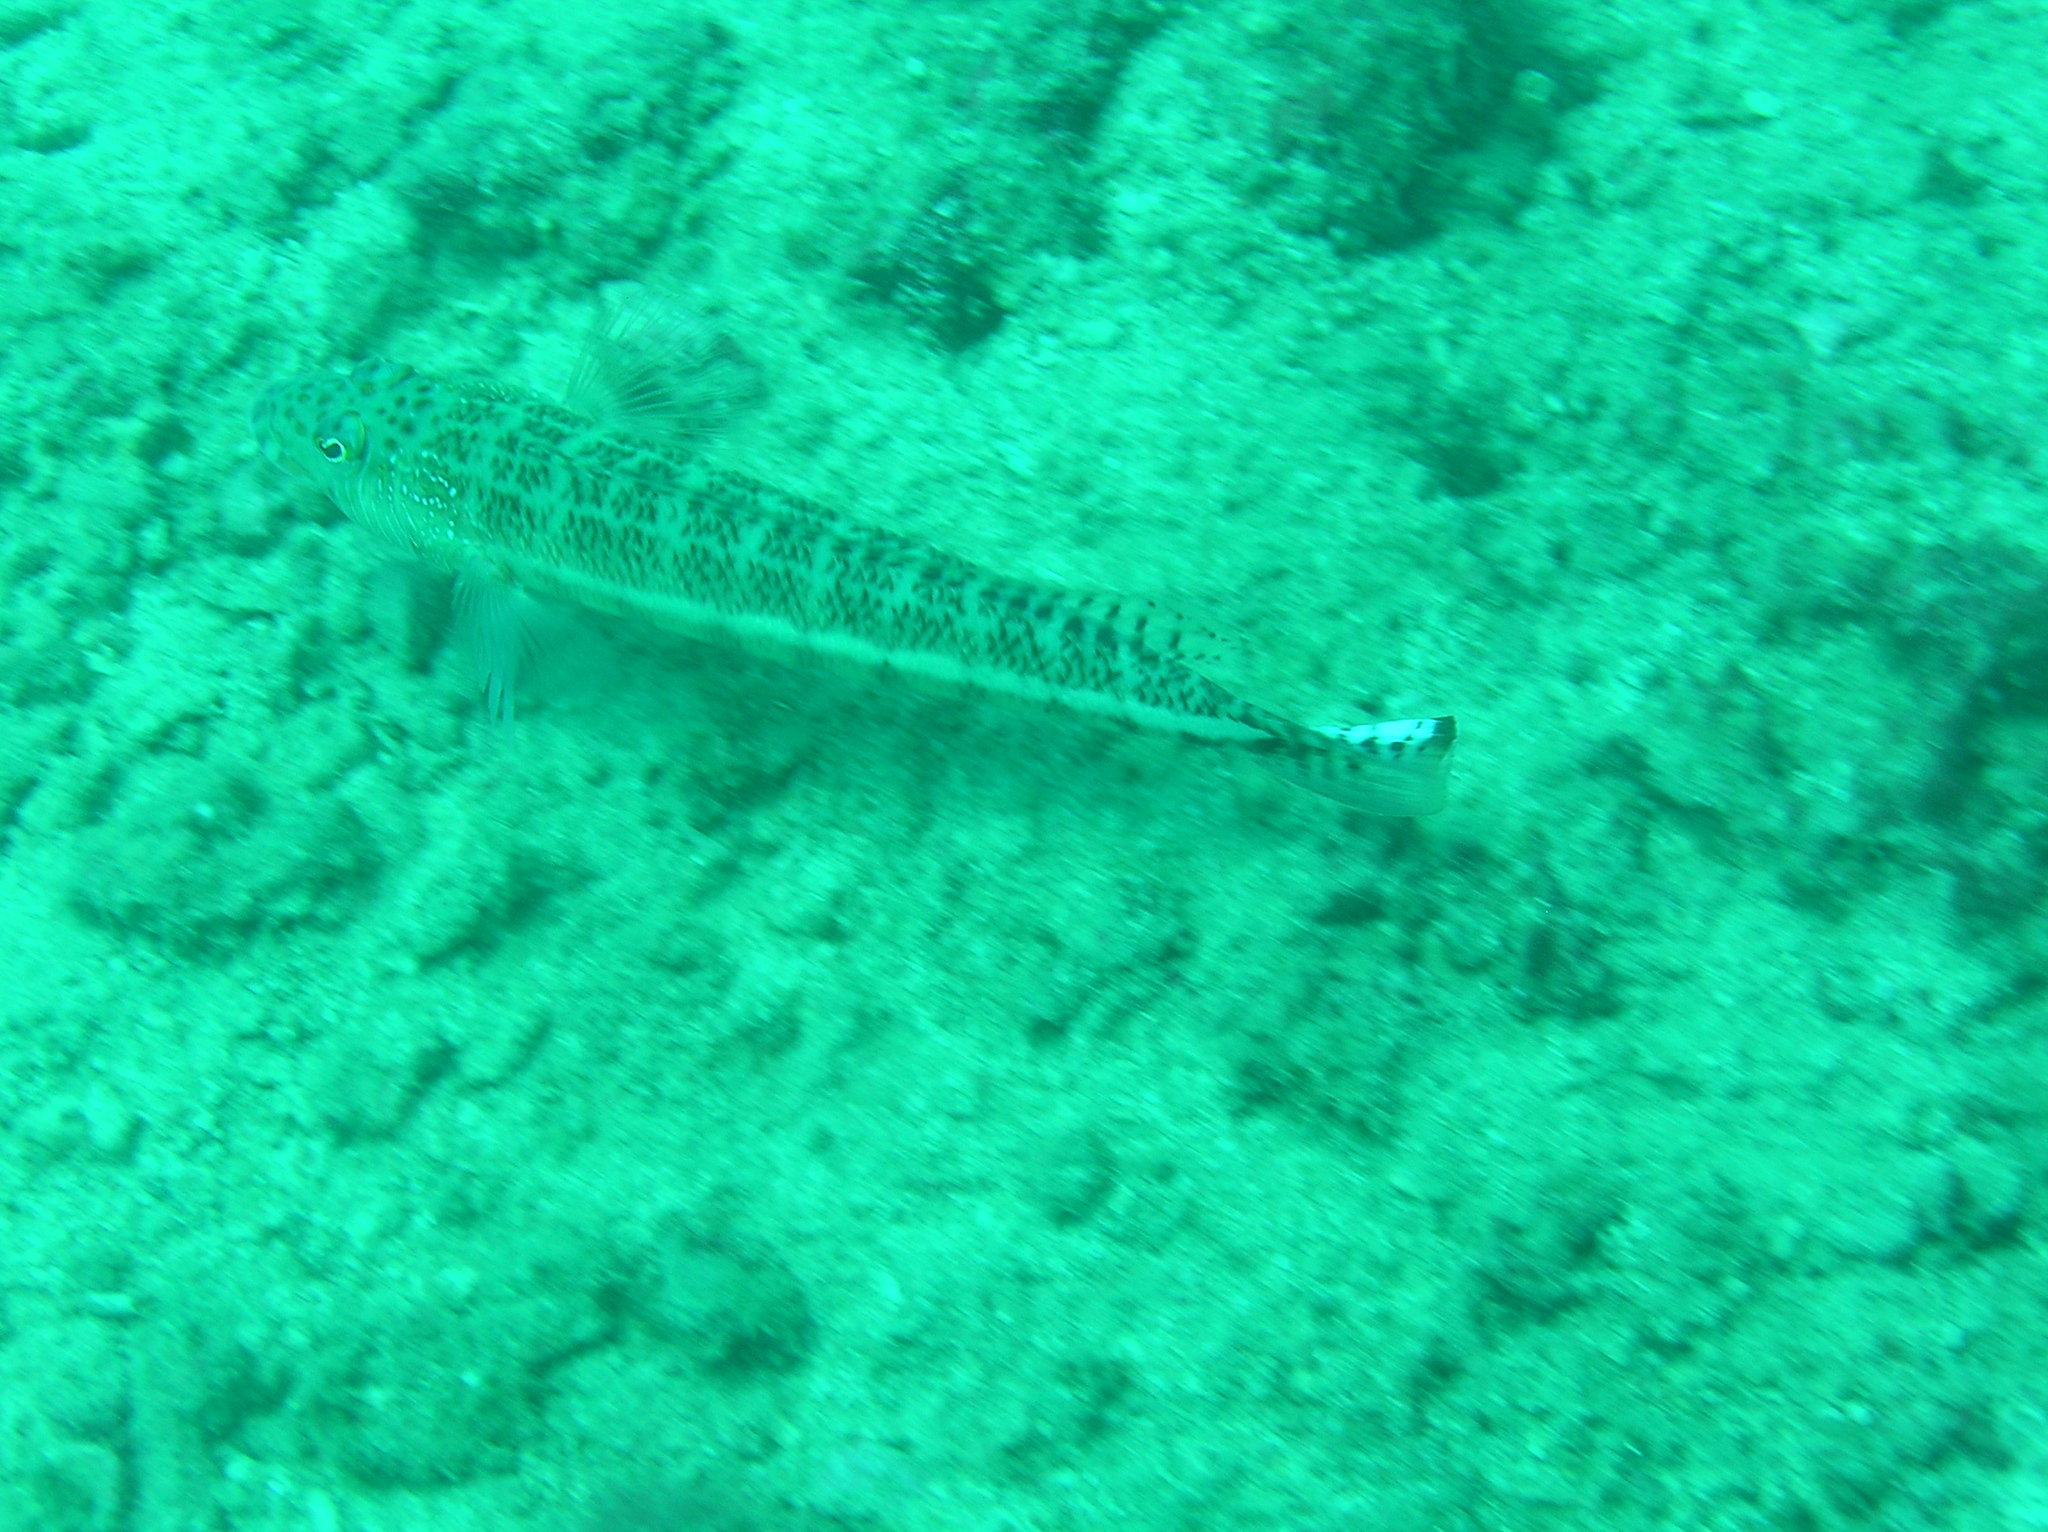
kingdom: Animalia
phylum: Chordata
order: Perciformes
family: Pinguipedidae
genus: Parapercis
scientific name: Parapercis xanthozona
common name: Yellowbar sandperch
